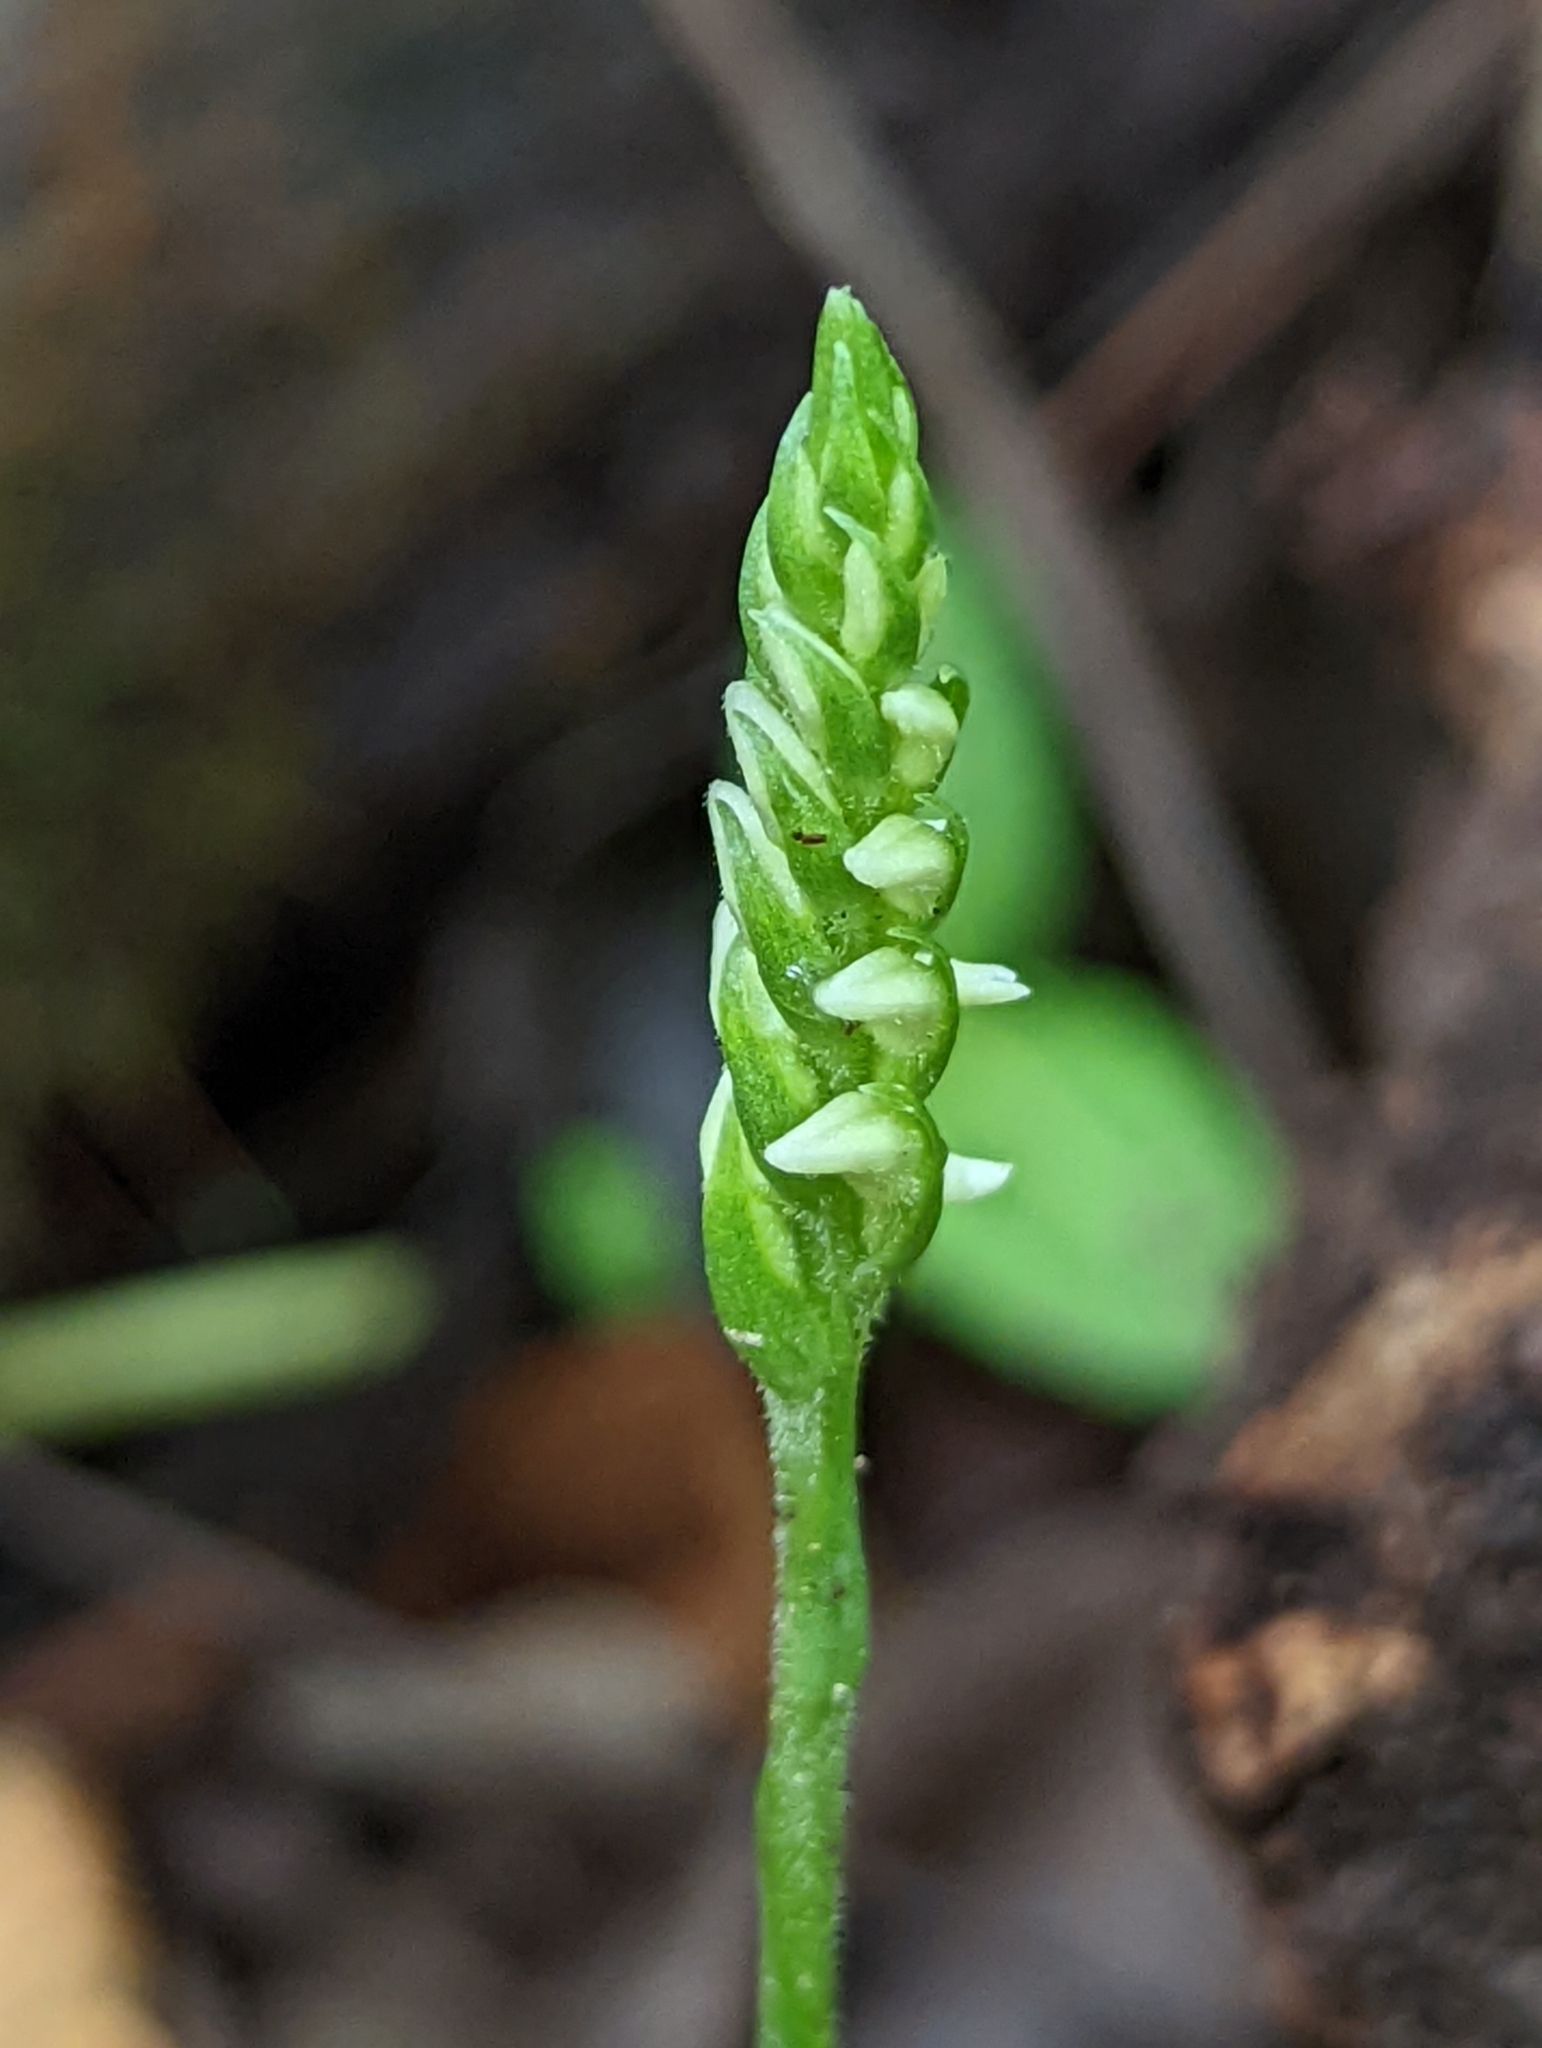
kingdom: Plantae
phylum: Tracheophyta
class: Liliopsida
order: Asparagales
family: Orchidaceae
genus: Spiranthes
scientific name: Spiranthes ovalis
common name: October ladies'-tresses
